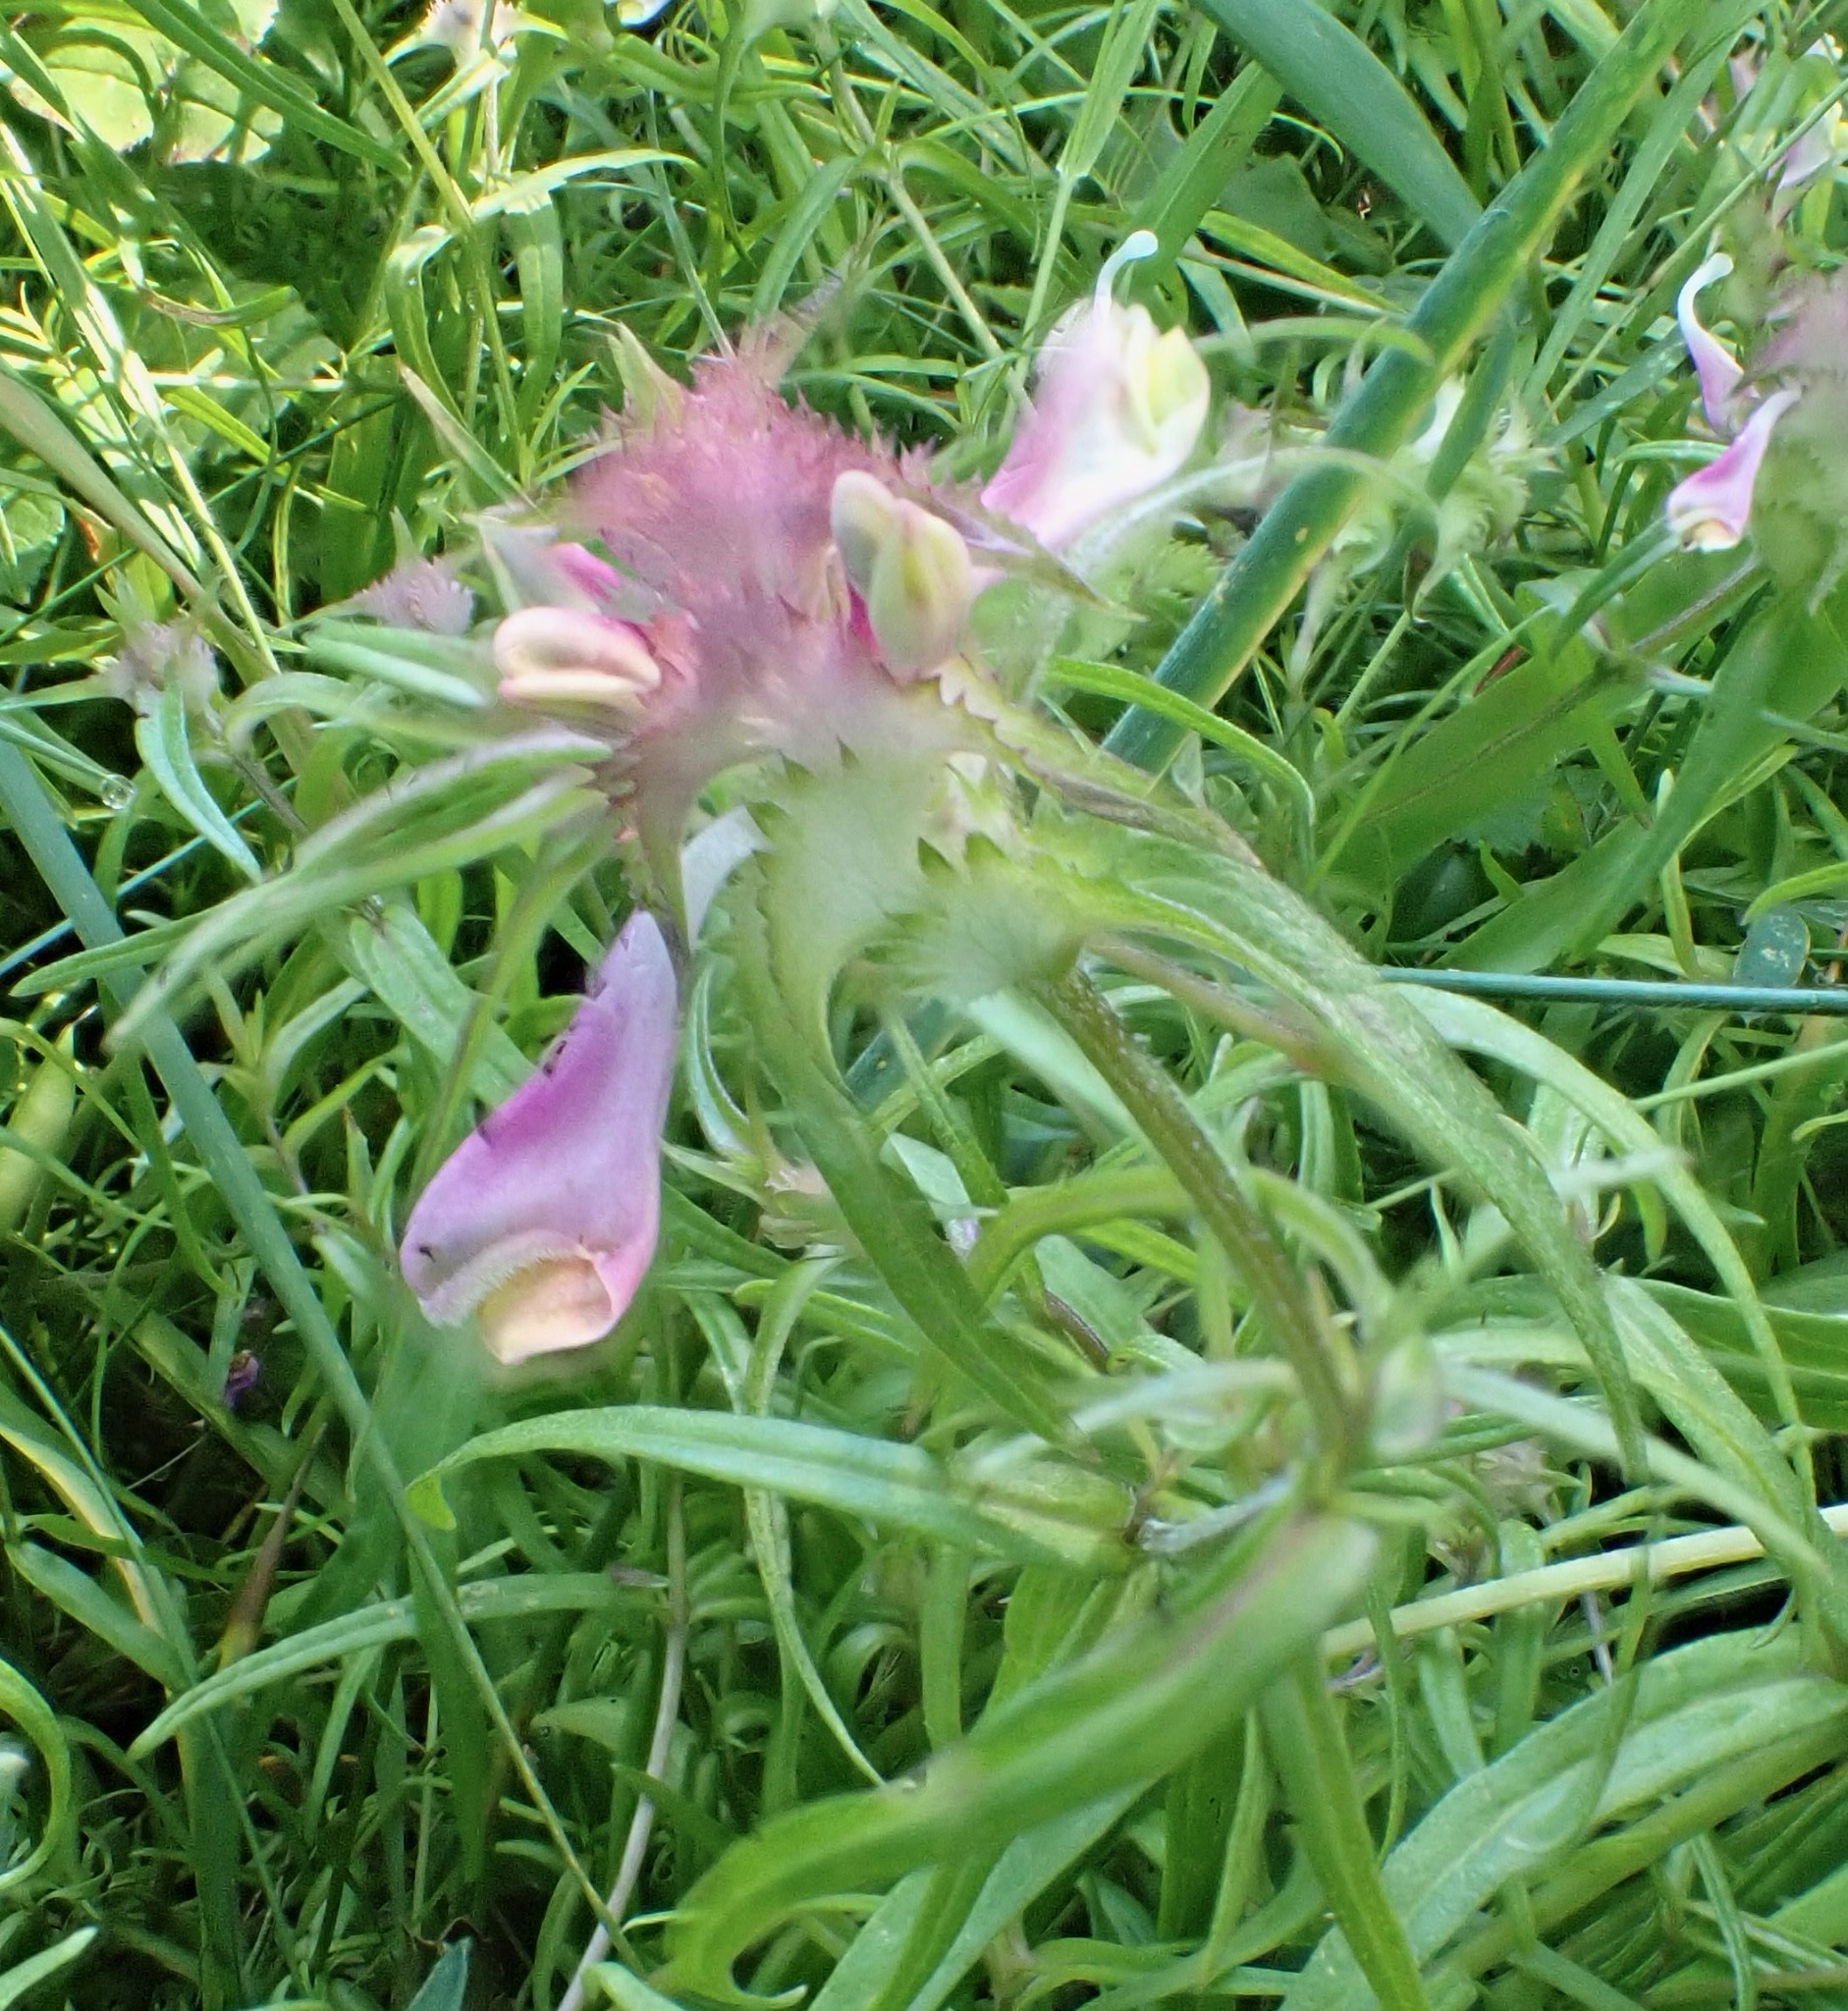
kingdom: Plantae
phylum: Tracheophyta
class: Magnoliopsida
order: Lamiales
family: Orobanchaceae
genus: Melampyrum
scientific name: Melampyrum cristatum
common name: Crested cow-wheat
